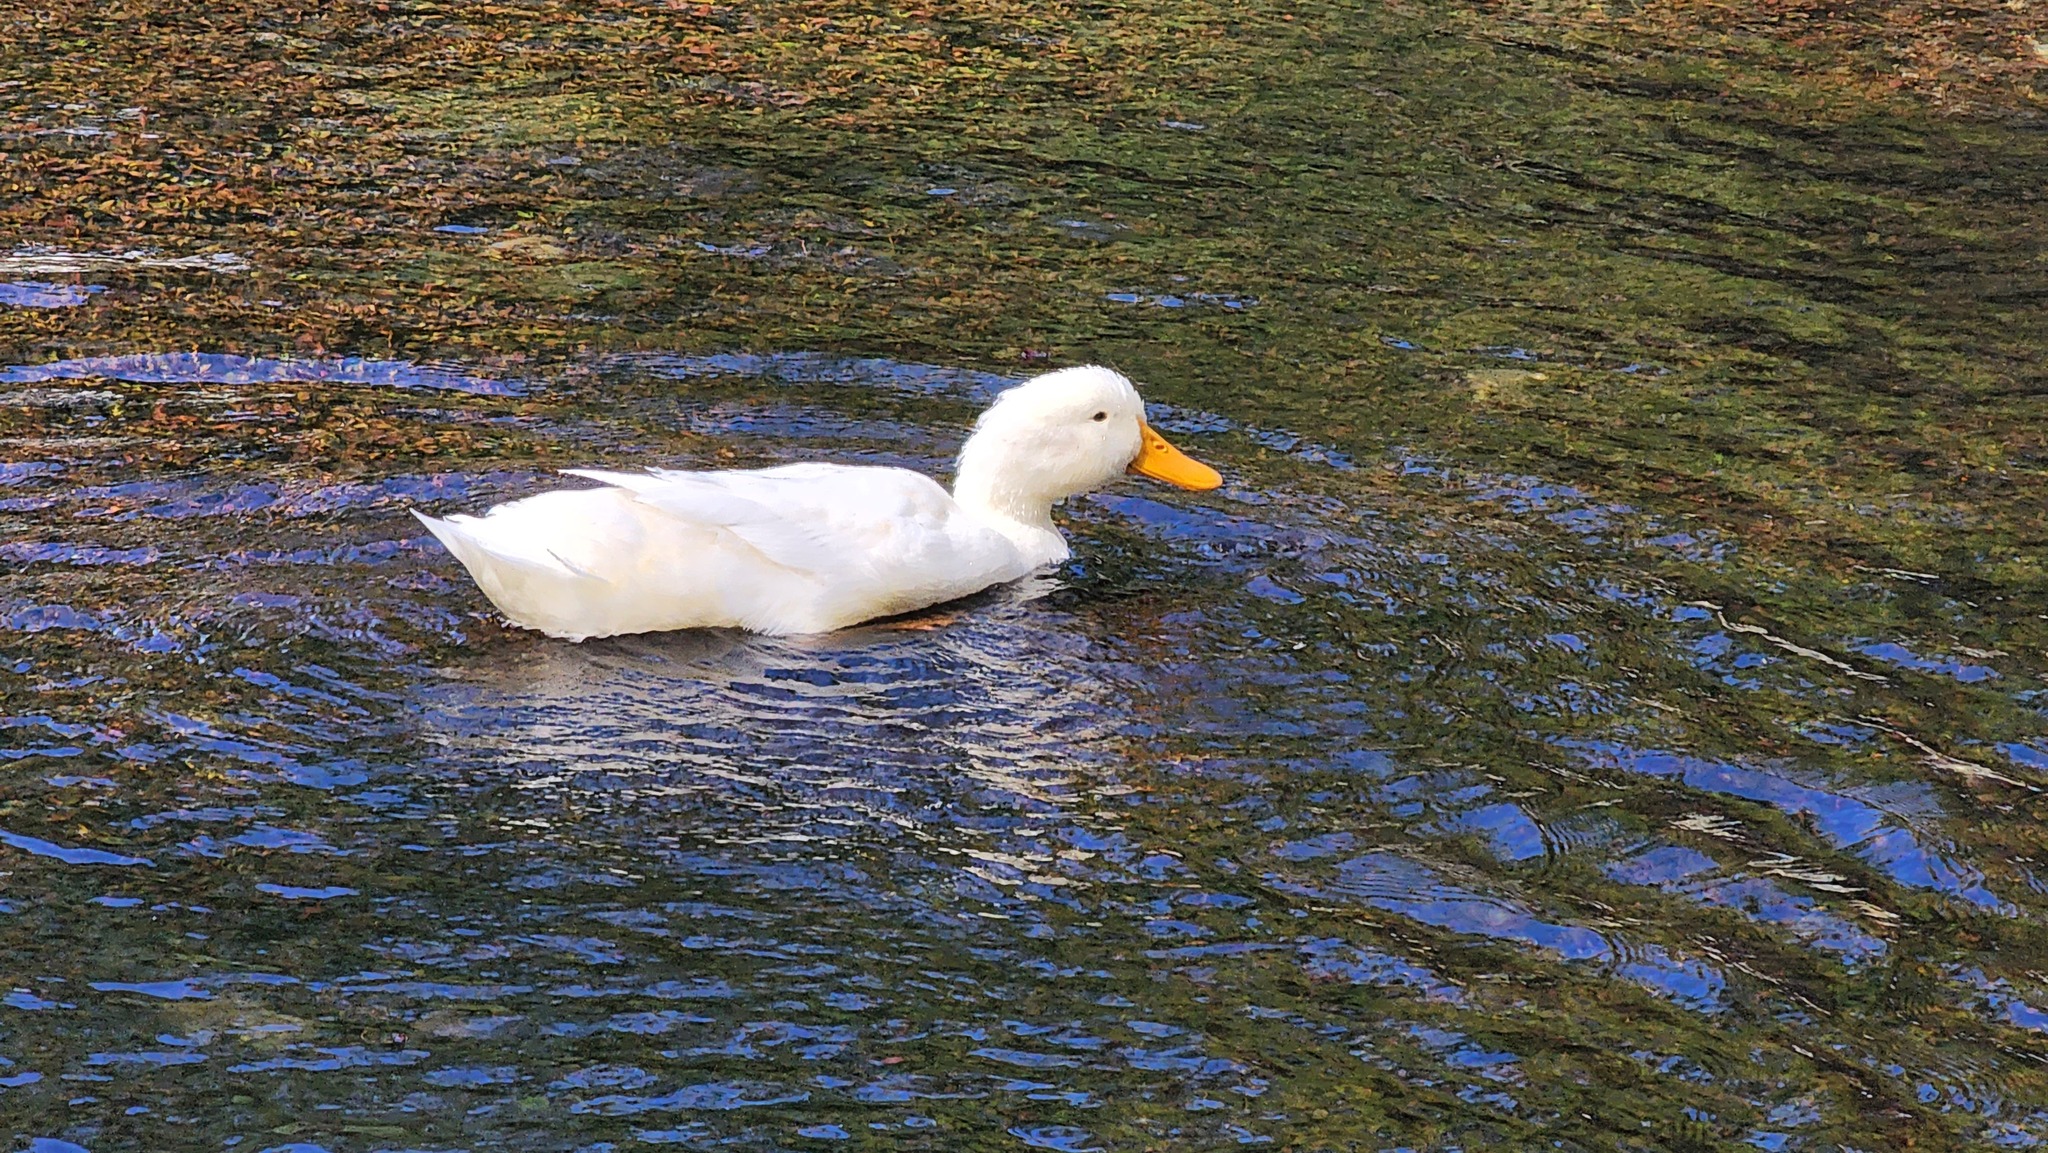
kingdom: Animalia
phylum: Chordata
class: Aves
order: Anseriformes
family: Anatidae
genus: Anas
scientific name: Anas platyrhynchos
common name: Mallard
